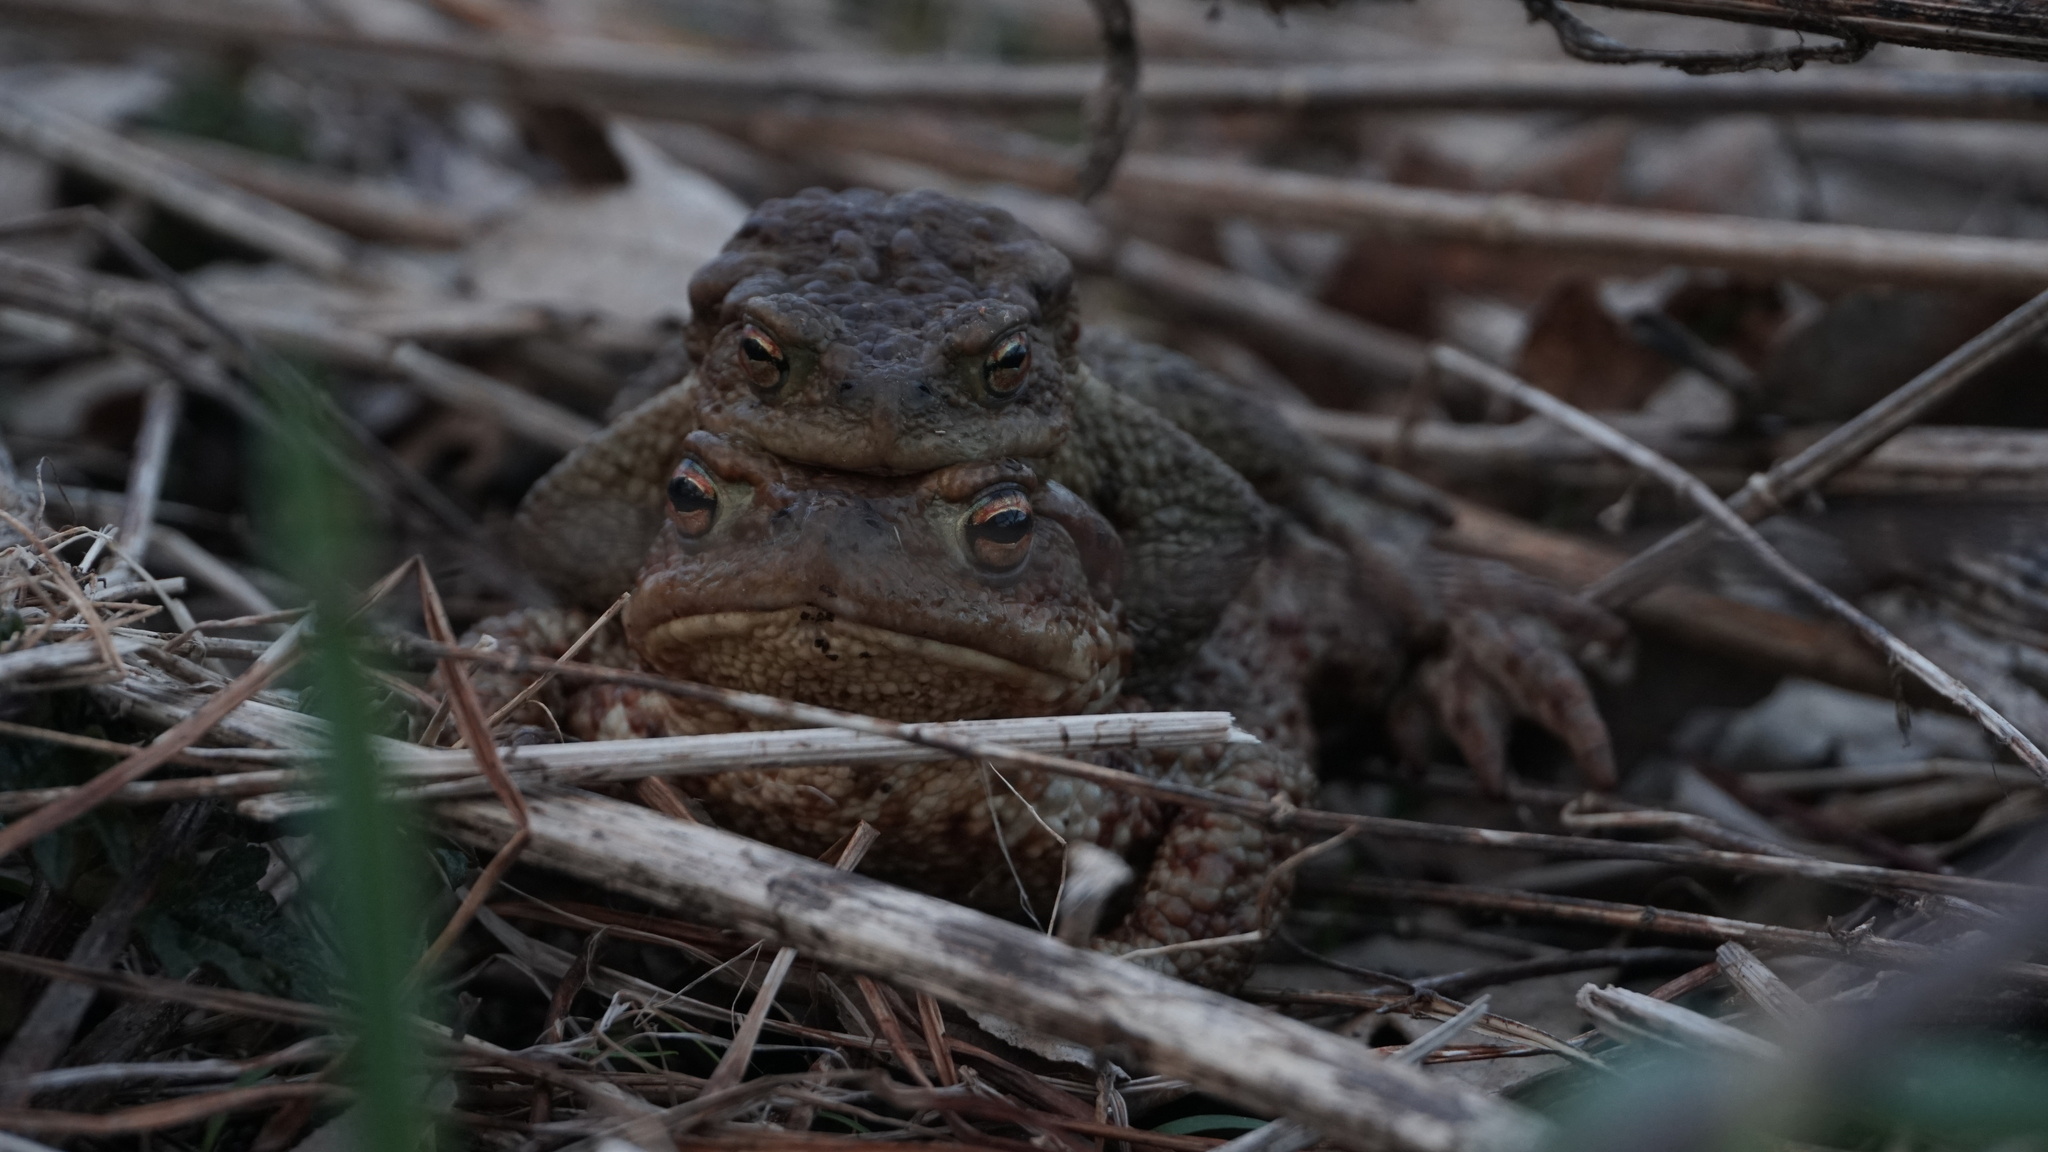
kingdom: Animalia
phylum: Chordata
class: Amphibia
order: Anura
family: Bufonidae
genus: Bufo
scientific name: Bufo bufo
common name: Common toad
